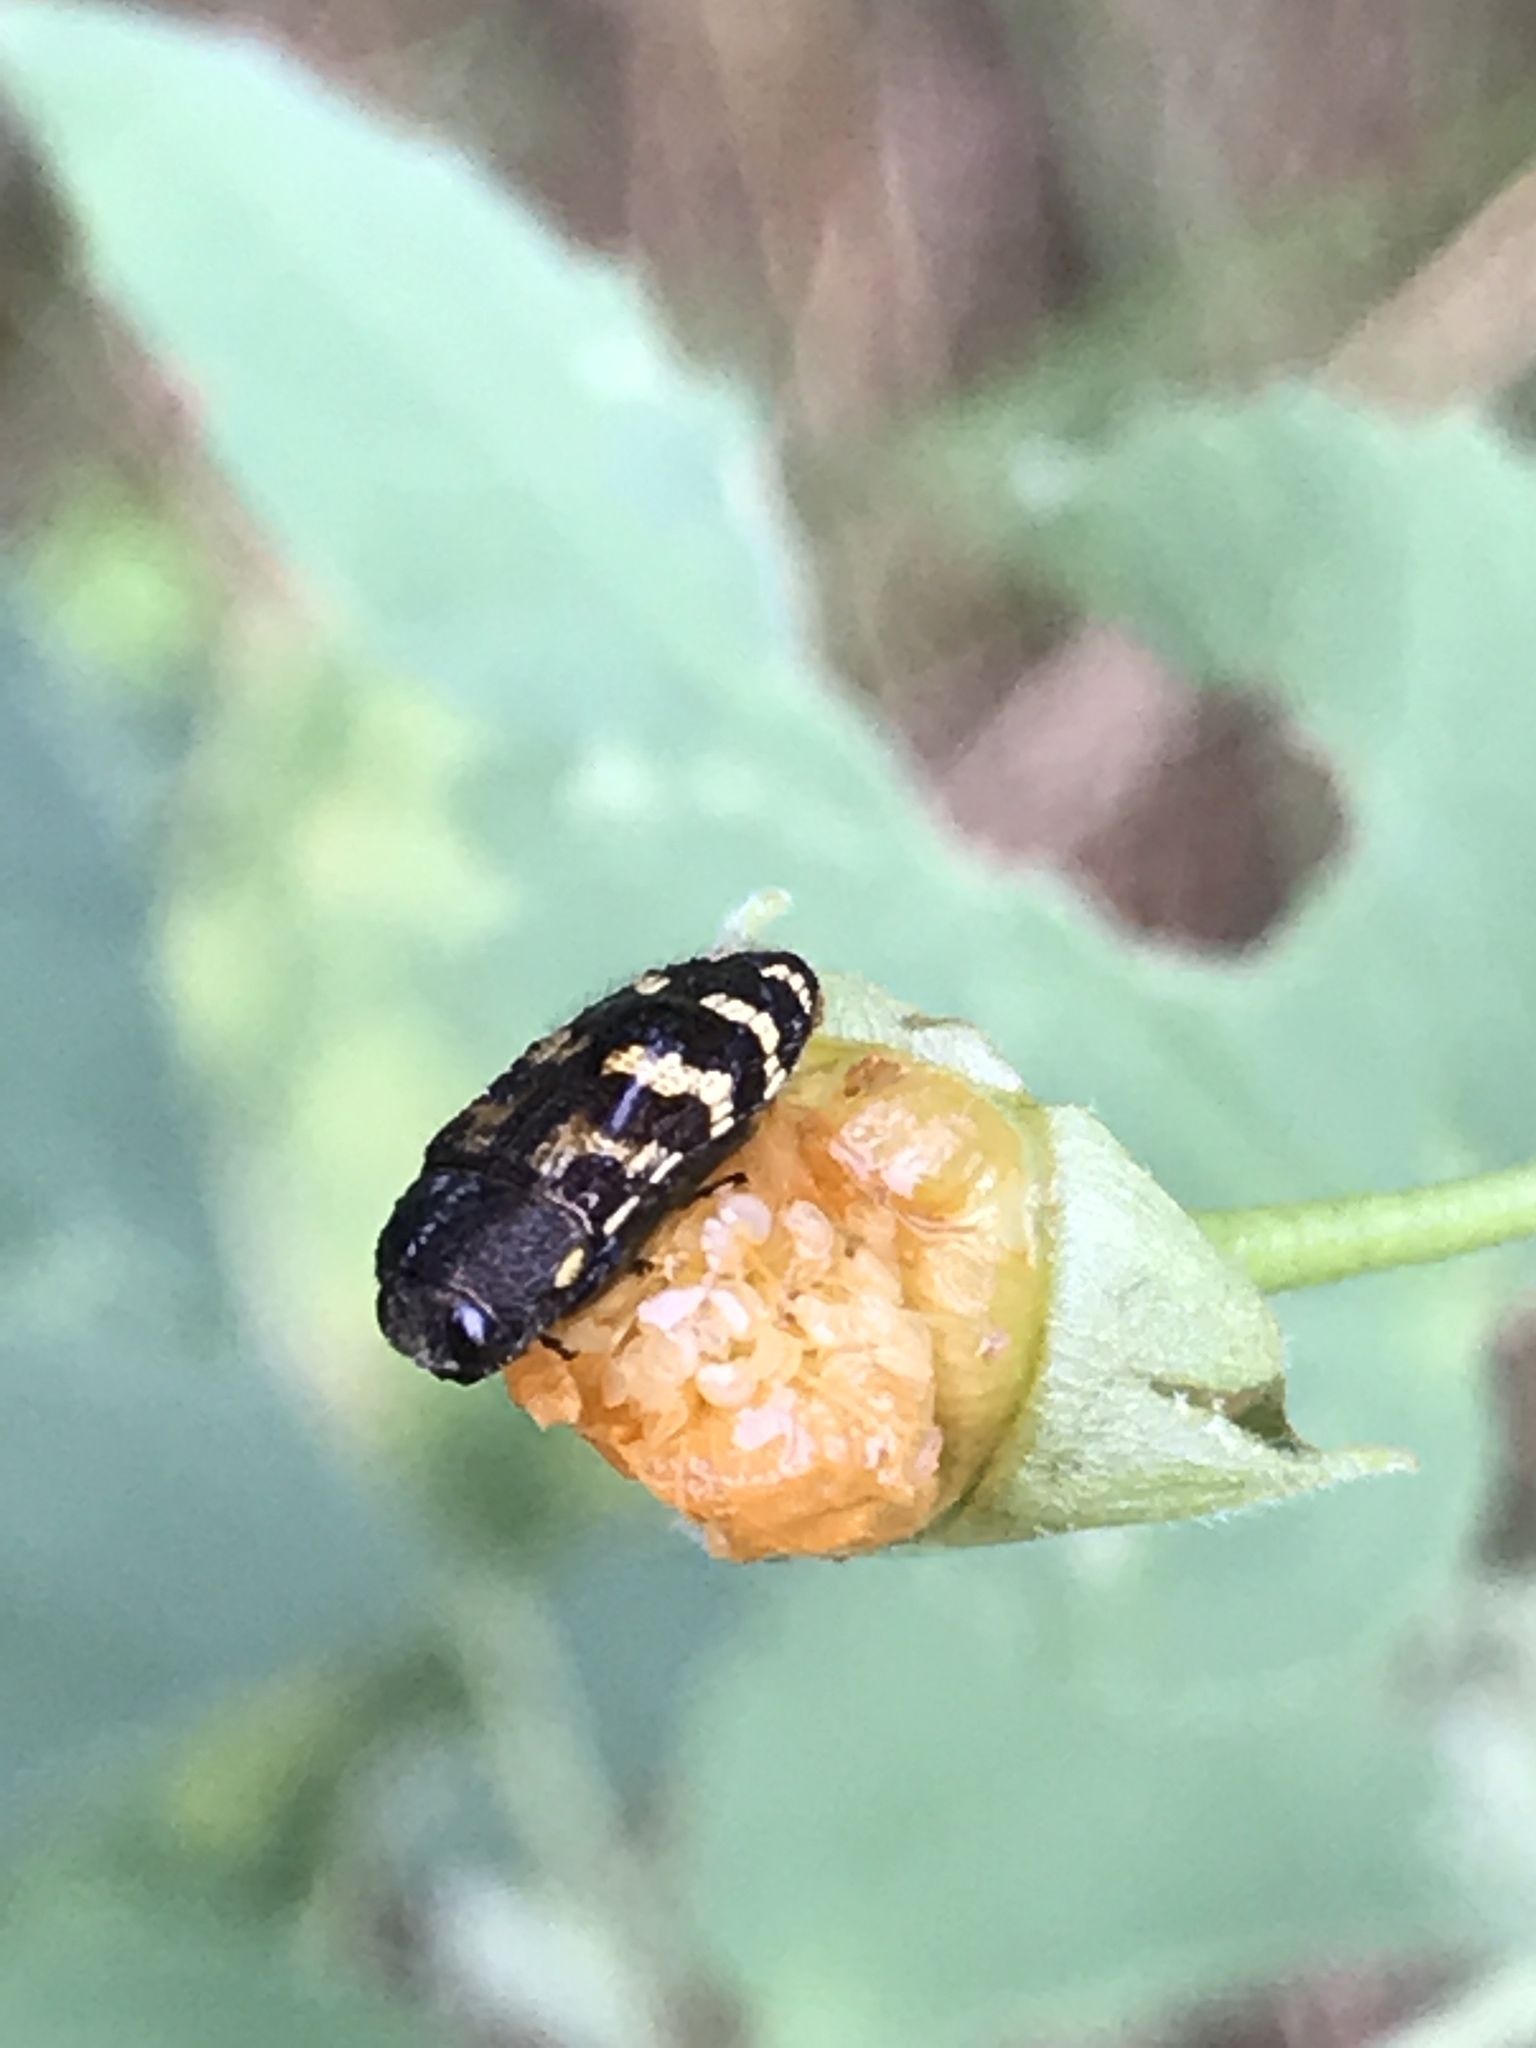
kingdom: Animalia
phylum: Arthropoda
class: Insecta
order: Coleoptera
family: Buprestidae
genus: Acmaeodera
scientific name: Acmaeodera mixta
